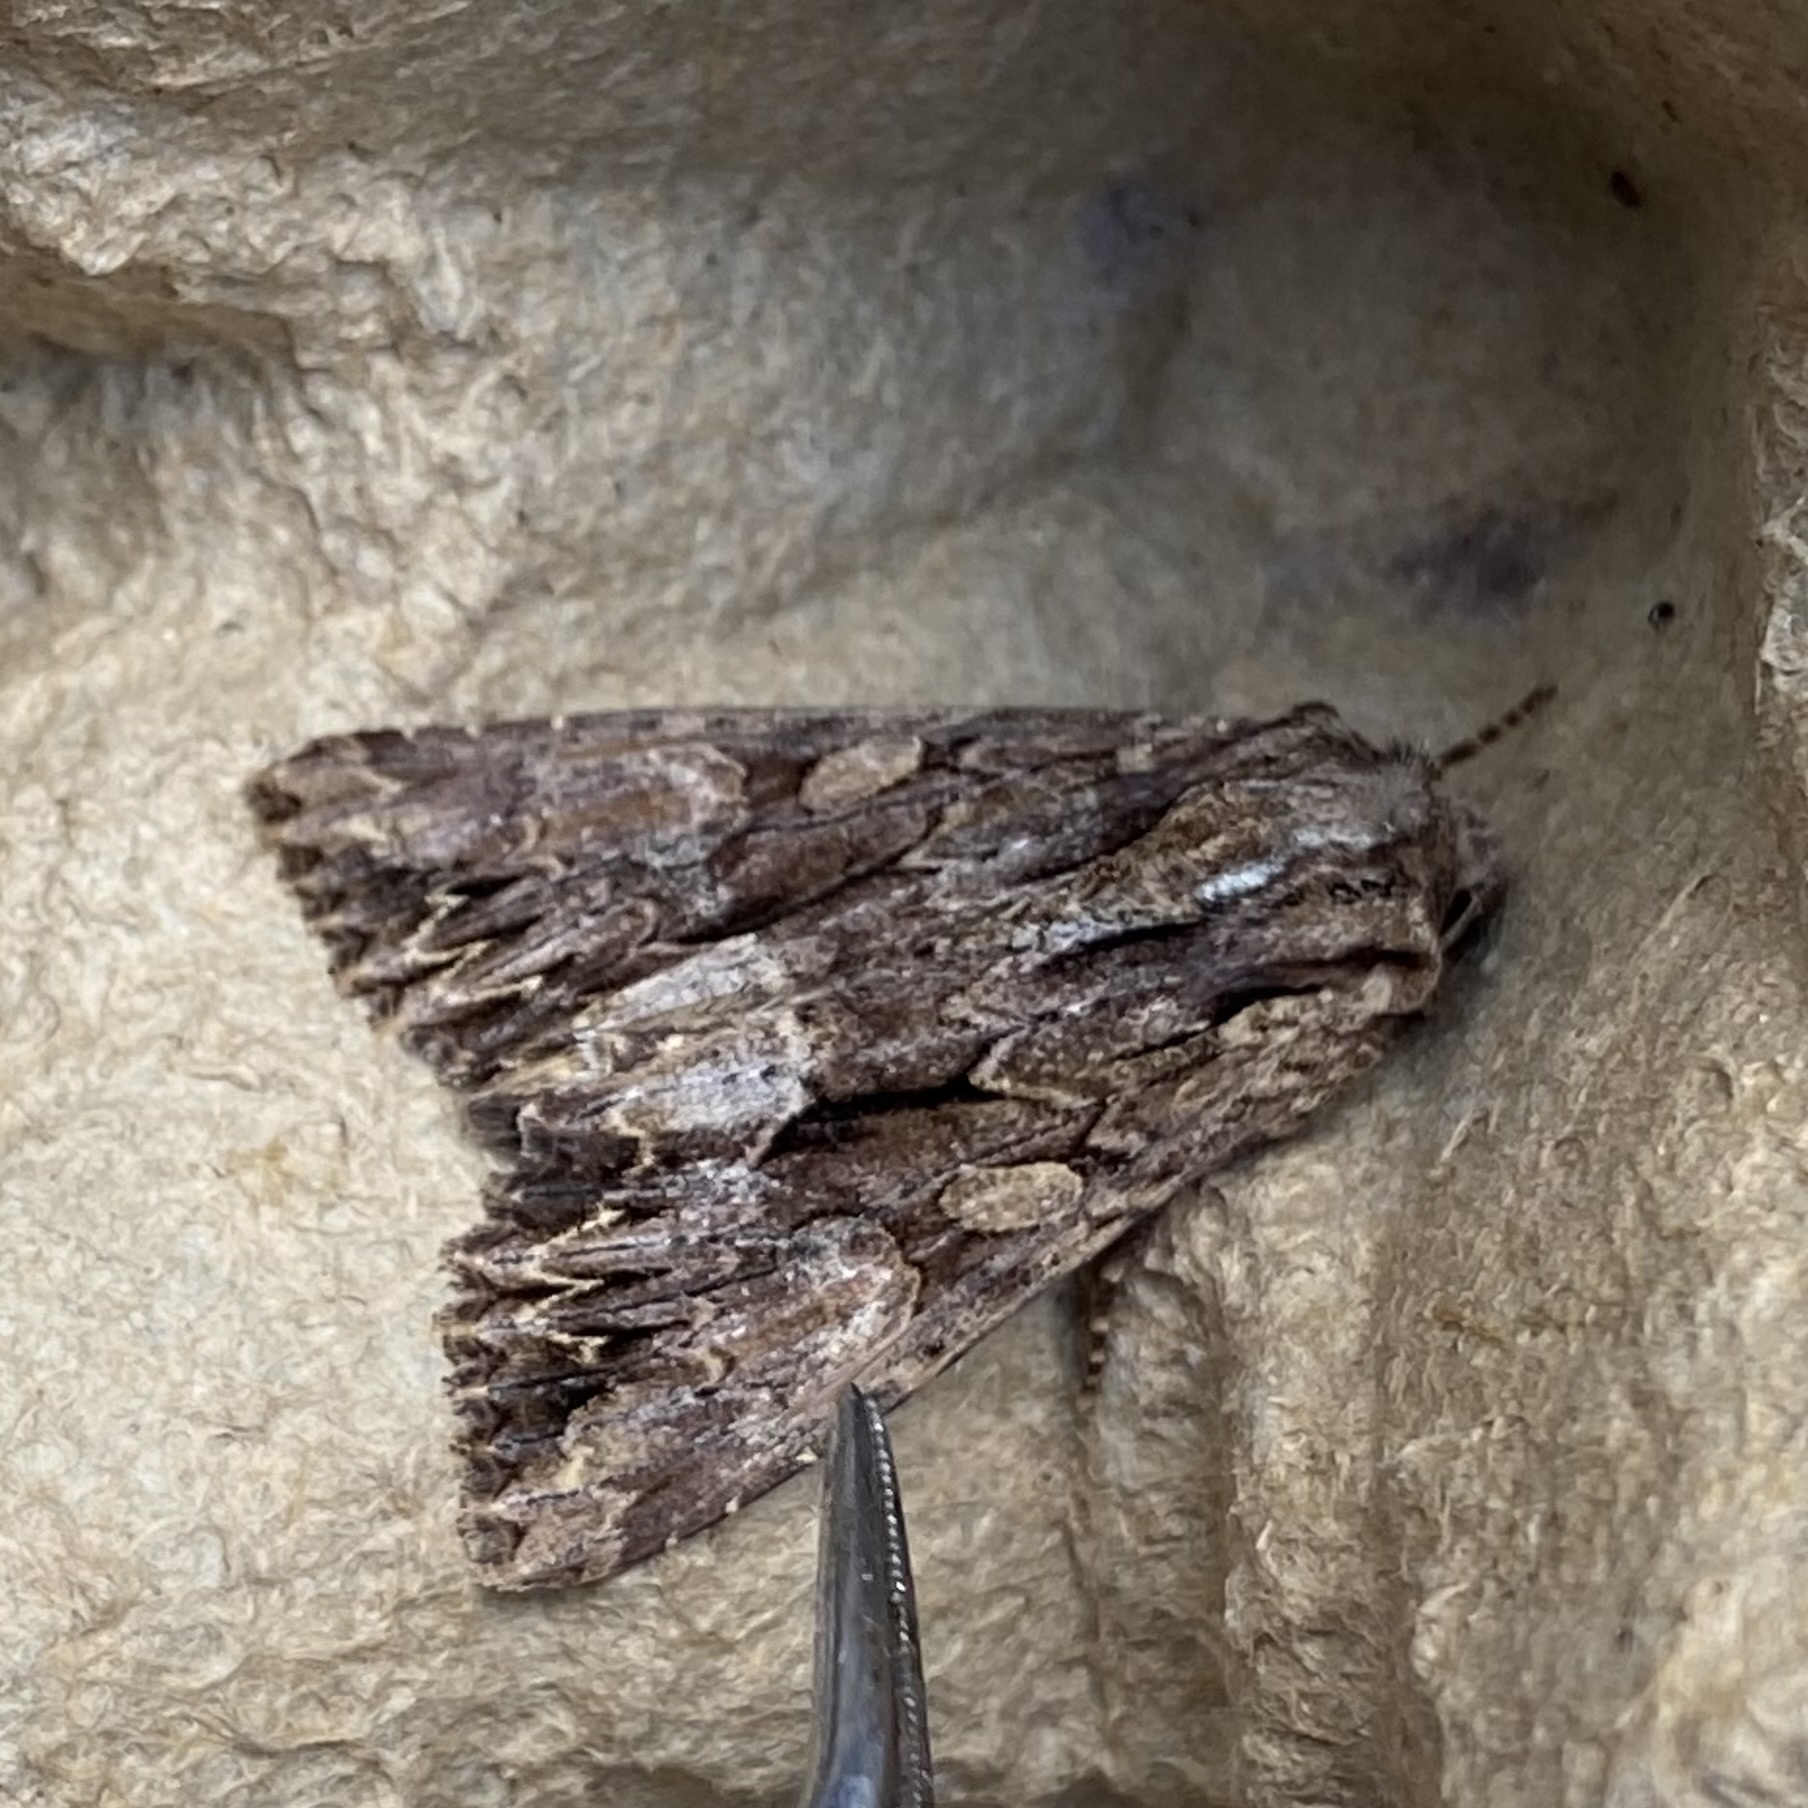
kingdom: Animalia
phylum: Arthropoda
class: Insecta
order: Lepidoptera
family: Noctuidae
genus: Apamea
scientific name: Apamea monoglypha
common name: Dark arches
